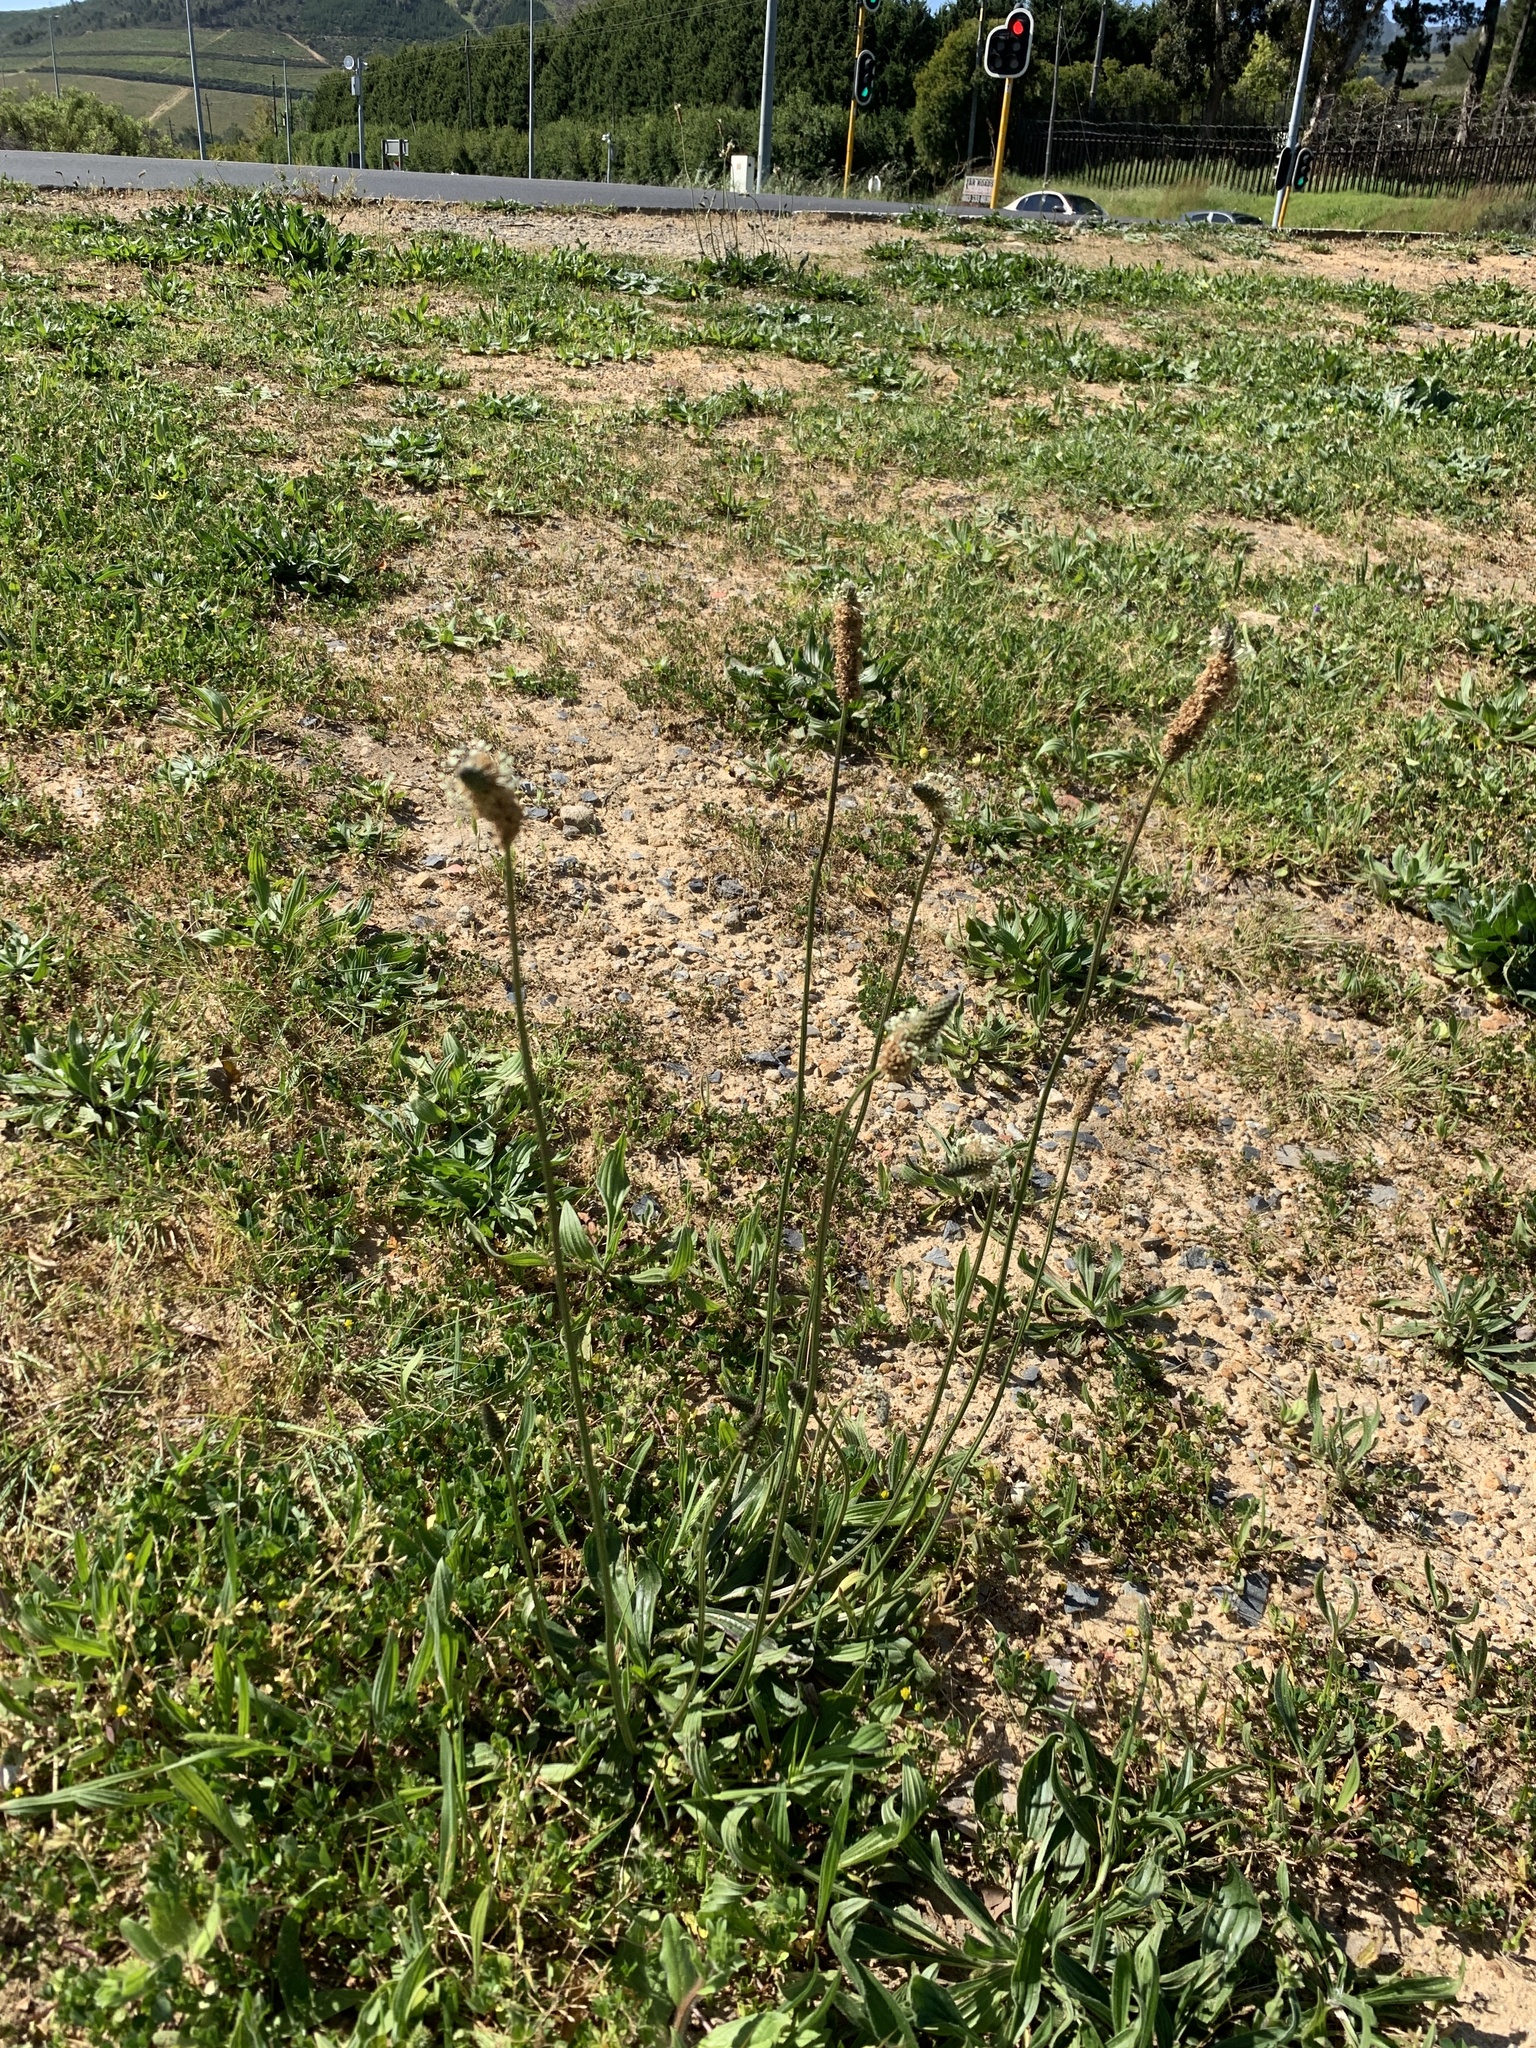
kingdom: Plantae
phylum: Tracheophyta
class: Magnoliopsida
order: Lamiales
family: Plantaginaceae
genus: Plantago
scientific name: Plantago lanceolata
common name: Ribwort plantain
